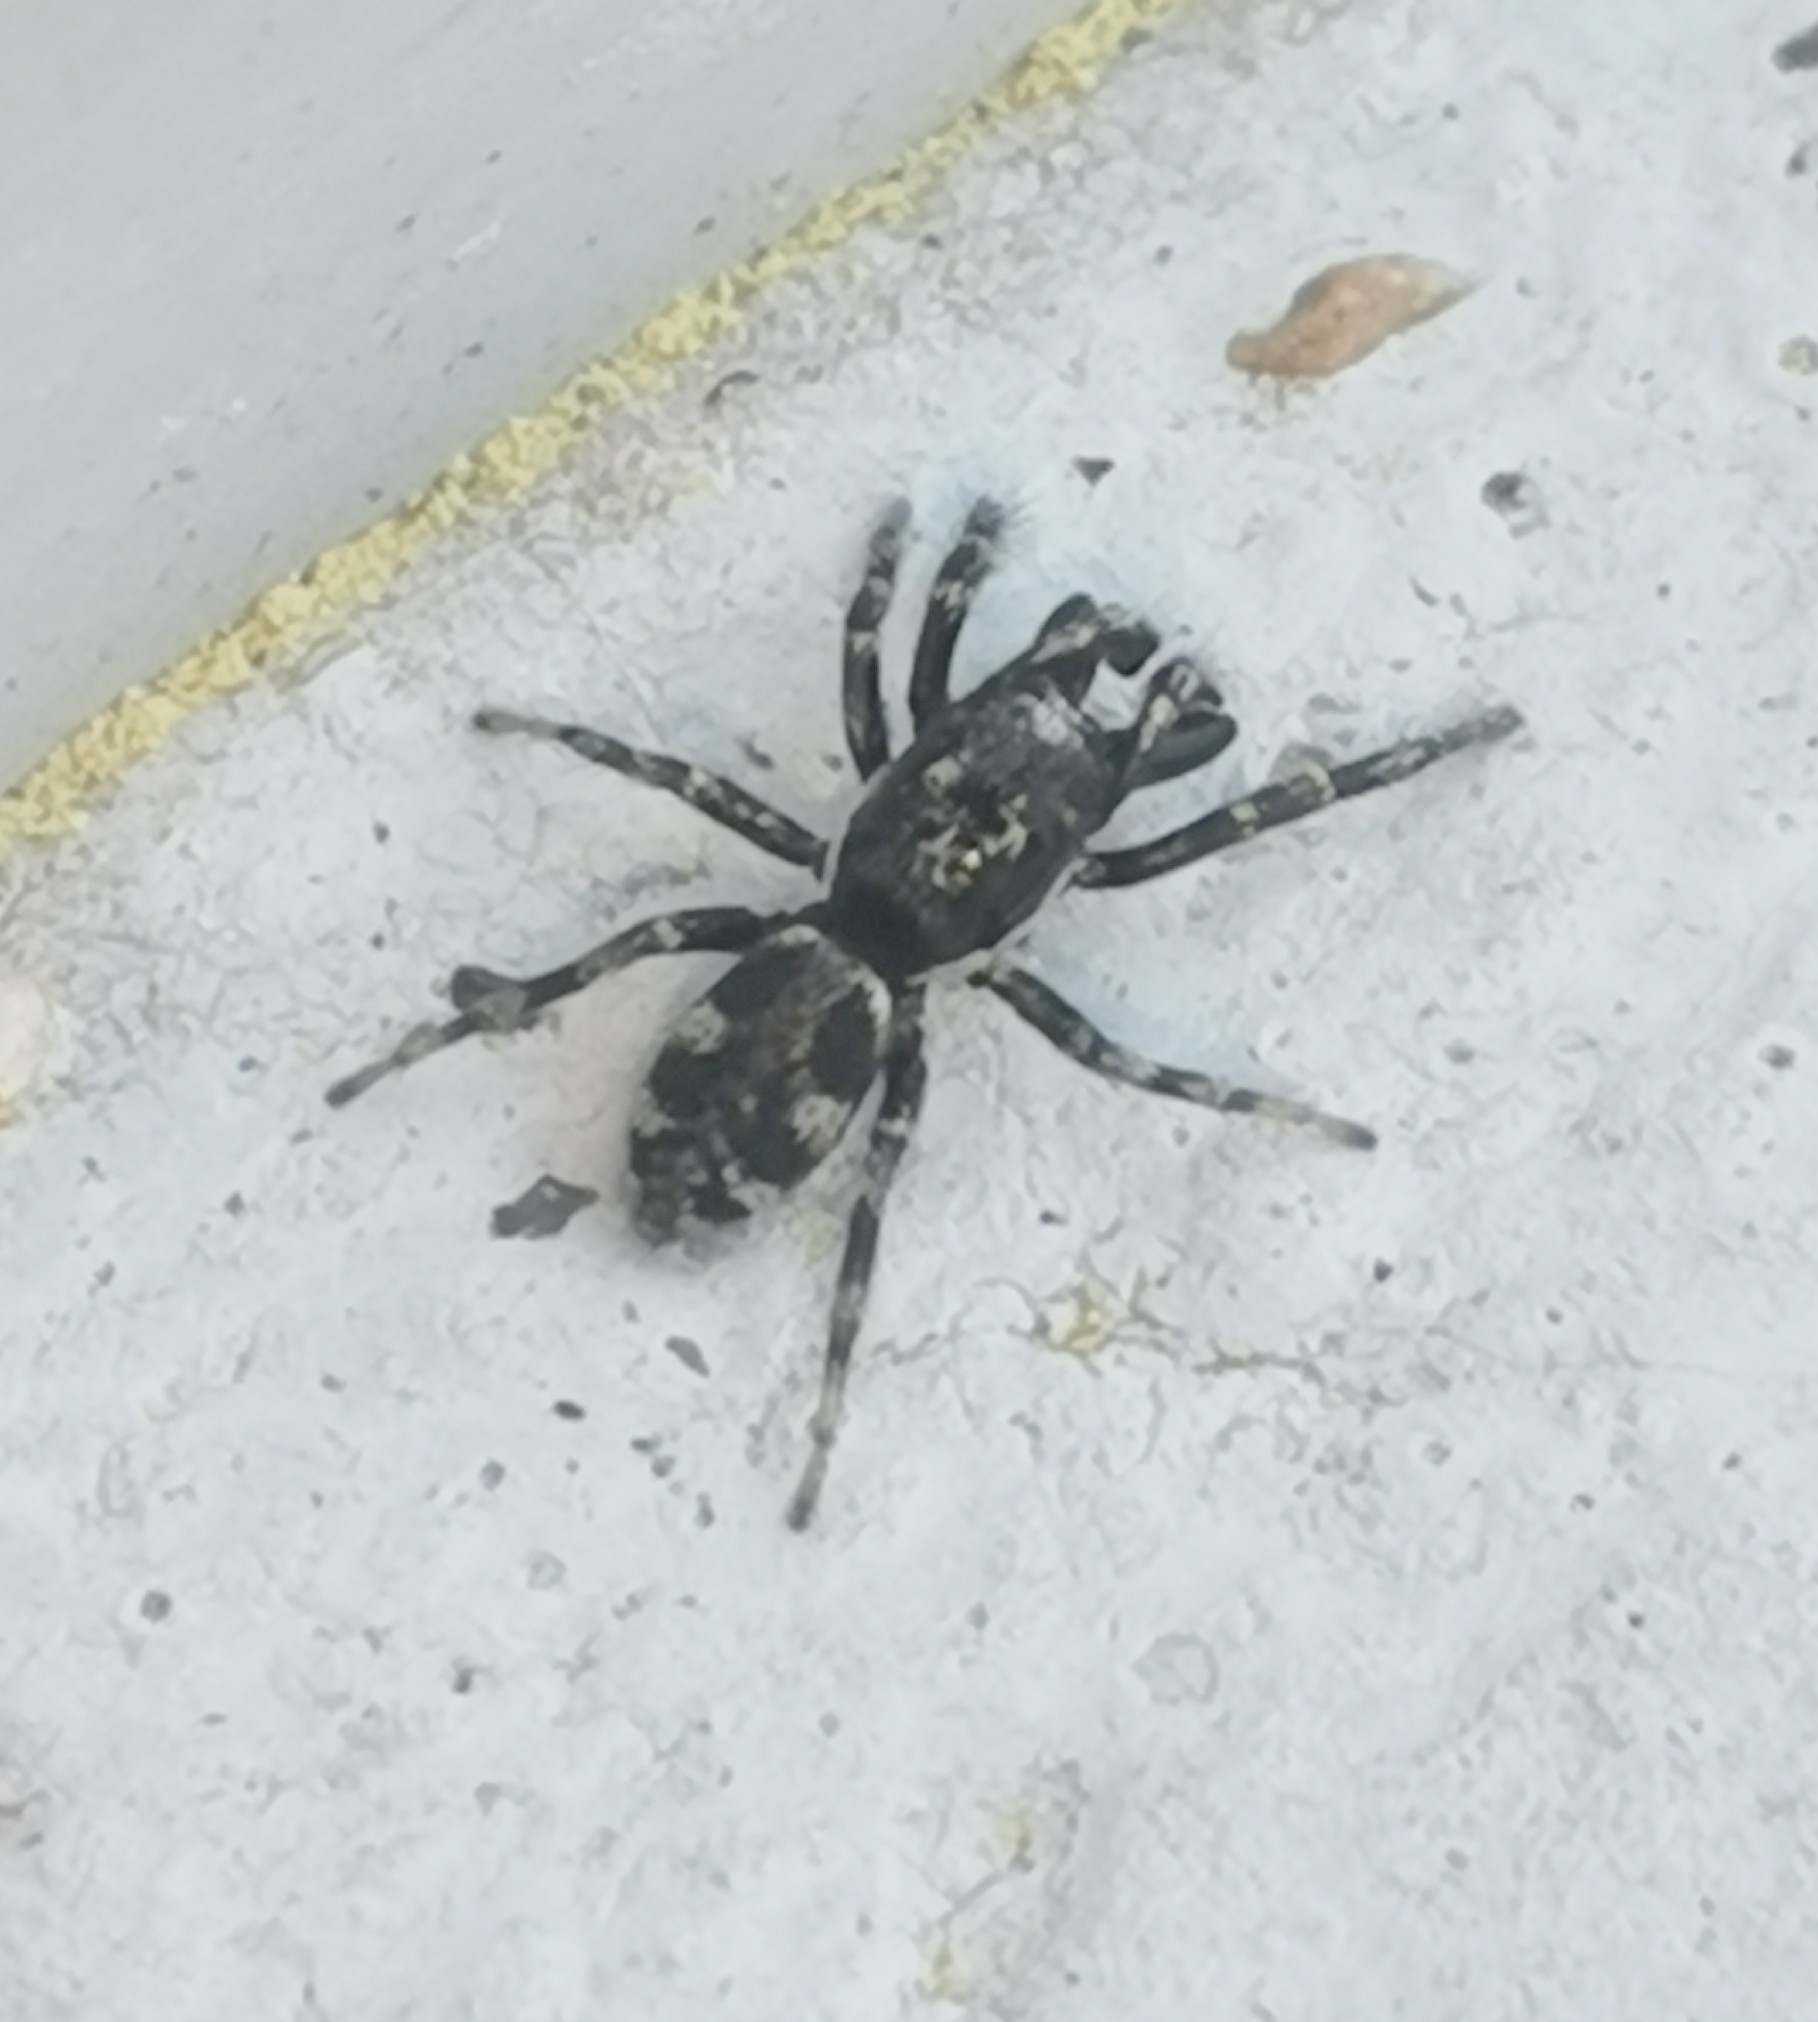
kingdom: Animalia
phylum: Arthropoda
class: Arachnida
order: Araneae
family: Salticidae
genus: Salticus
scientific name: Salticus cingulatus
